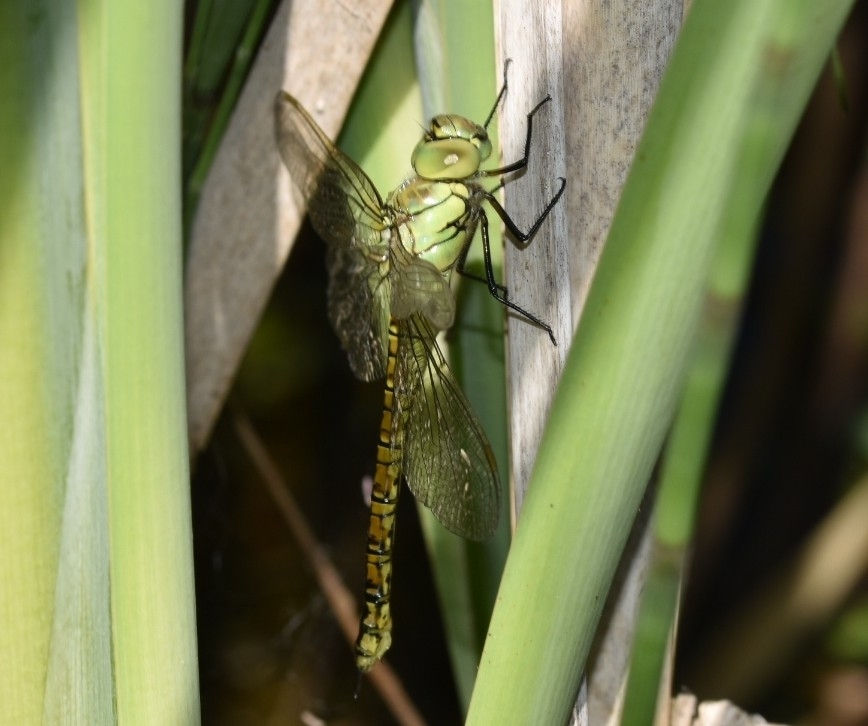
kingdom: Animalia
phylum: Arthropoda
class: Insecta
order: Odonata
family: Aeshnidae
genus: Aeshna
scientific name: Aeshna affinis
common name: Southern migrant hawker
